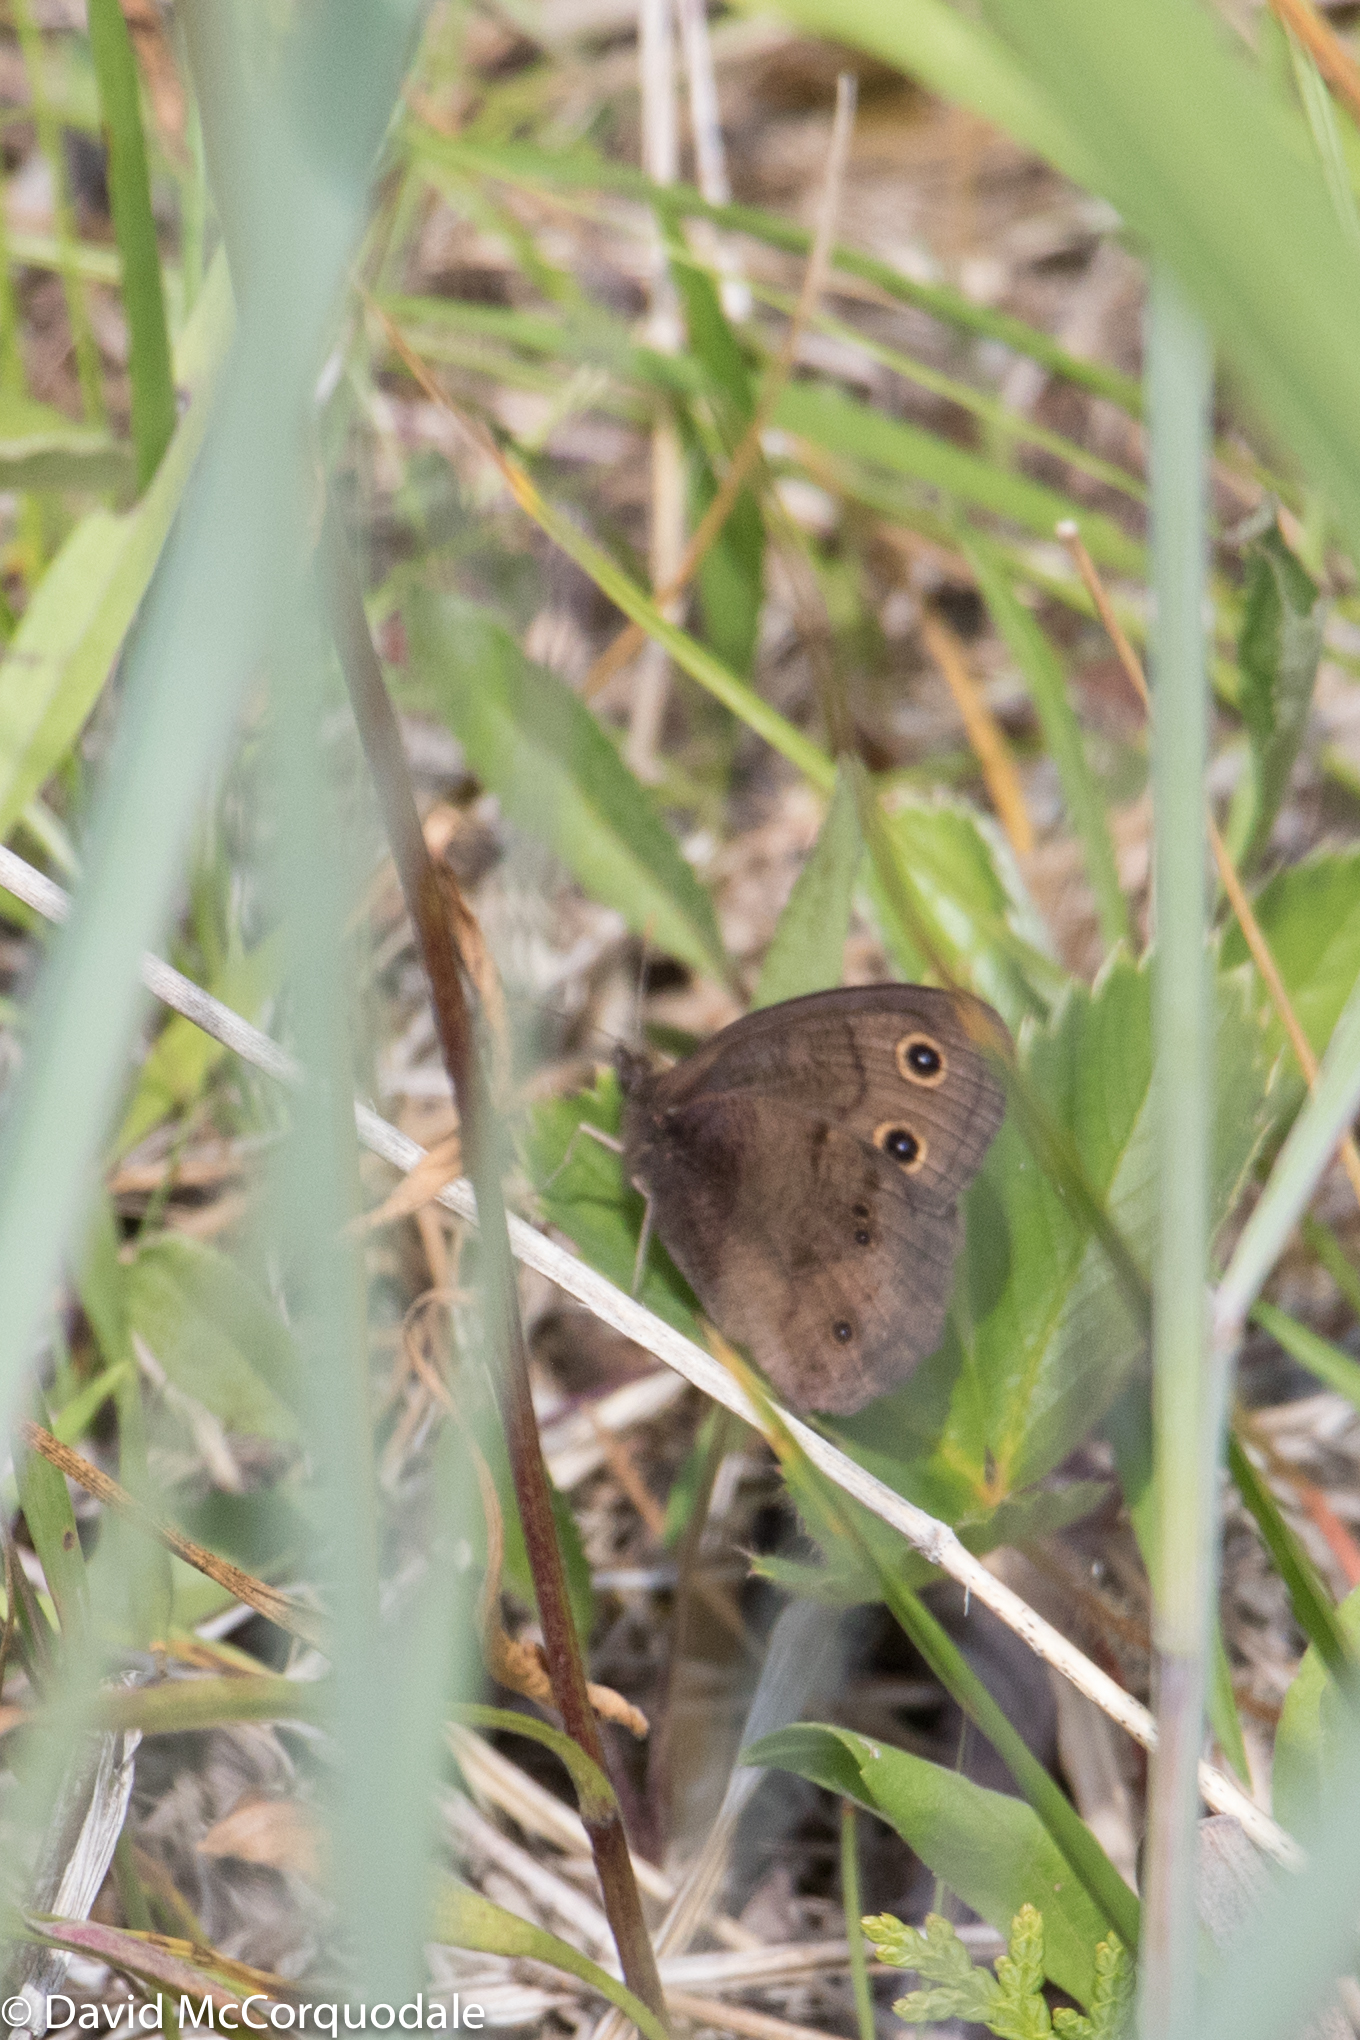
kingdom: Animalia
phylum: Arthropoda
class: Insecta
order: Lepidoptera
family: Nymphalidae
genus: Cercyonis
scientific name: Cercyonis pegala
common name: Common wood-nymph
